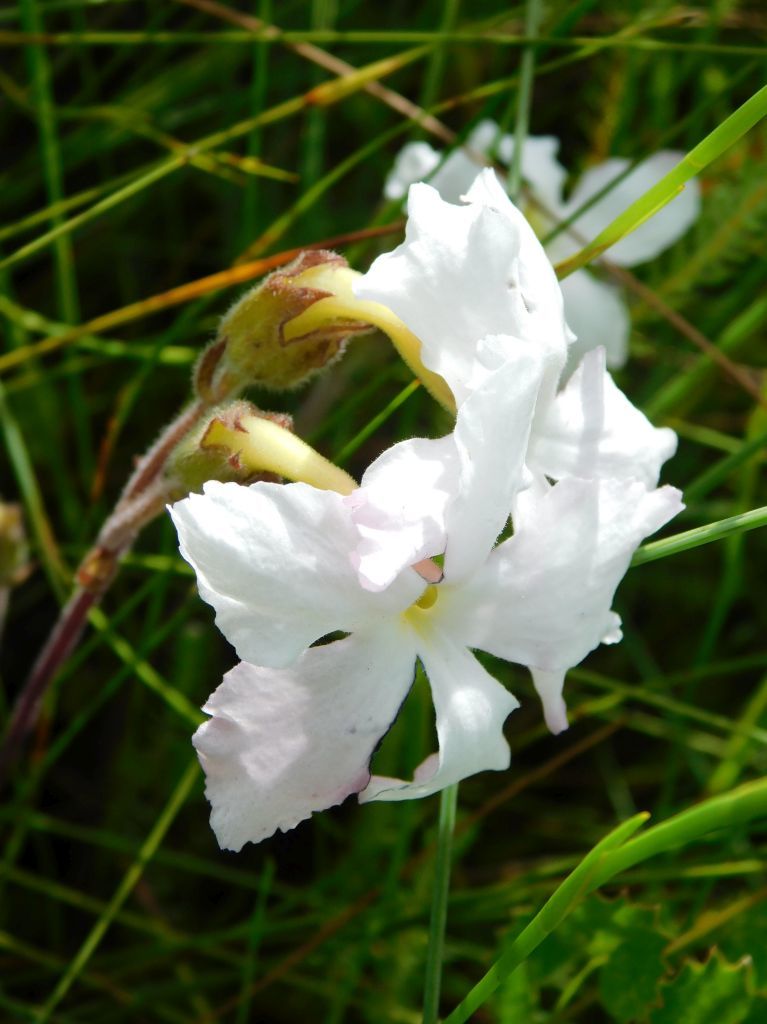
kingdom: Plantae
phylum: Tracheophyta
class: Magnoliopsida
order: Lamiales
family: Orobanchaceae
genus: Harveya
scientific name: Harveya capensis
